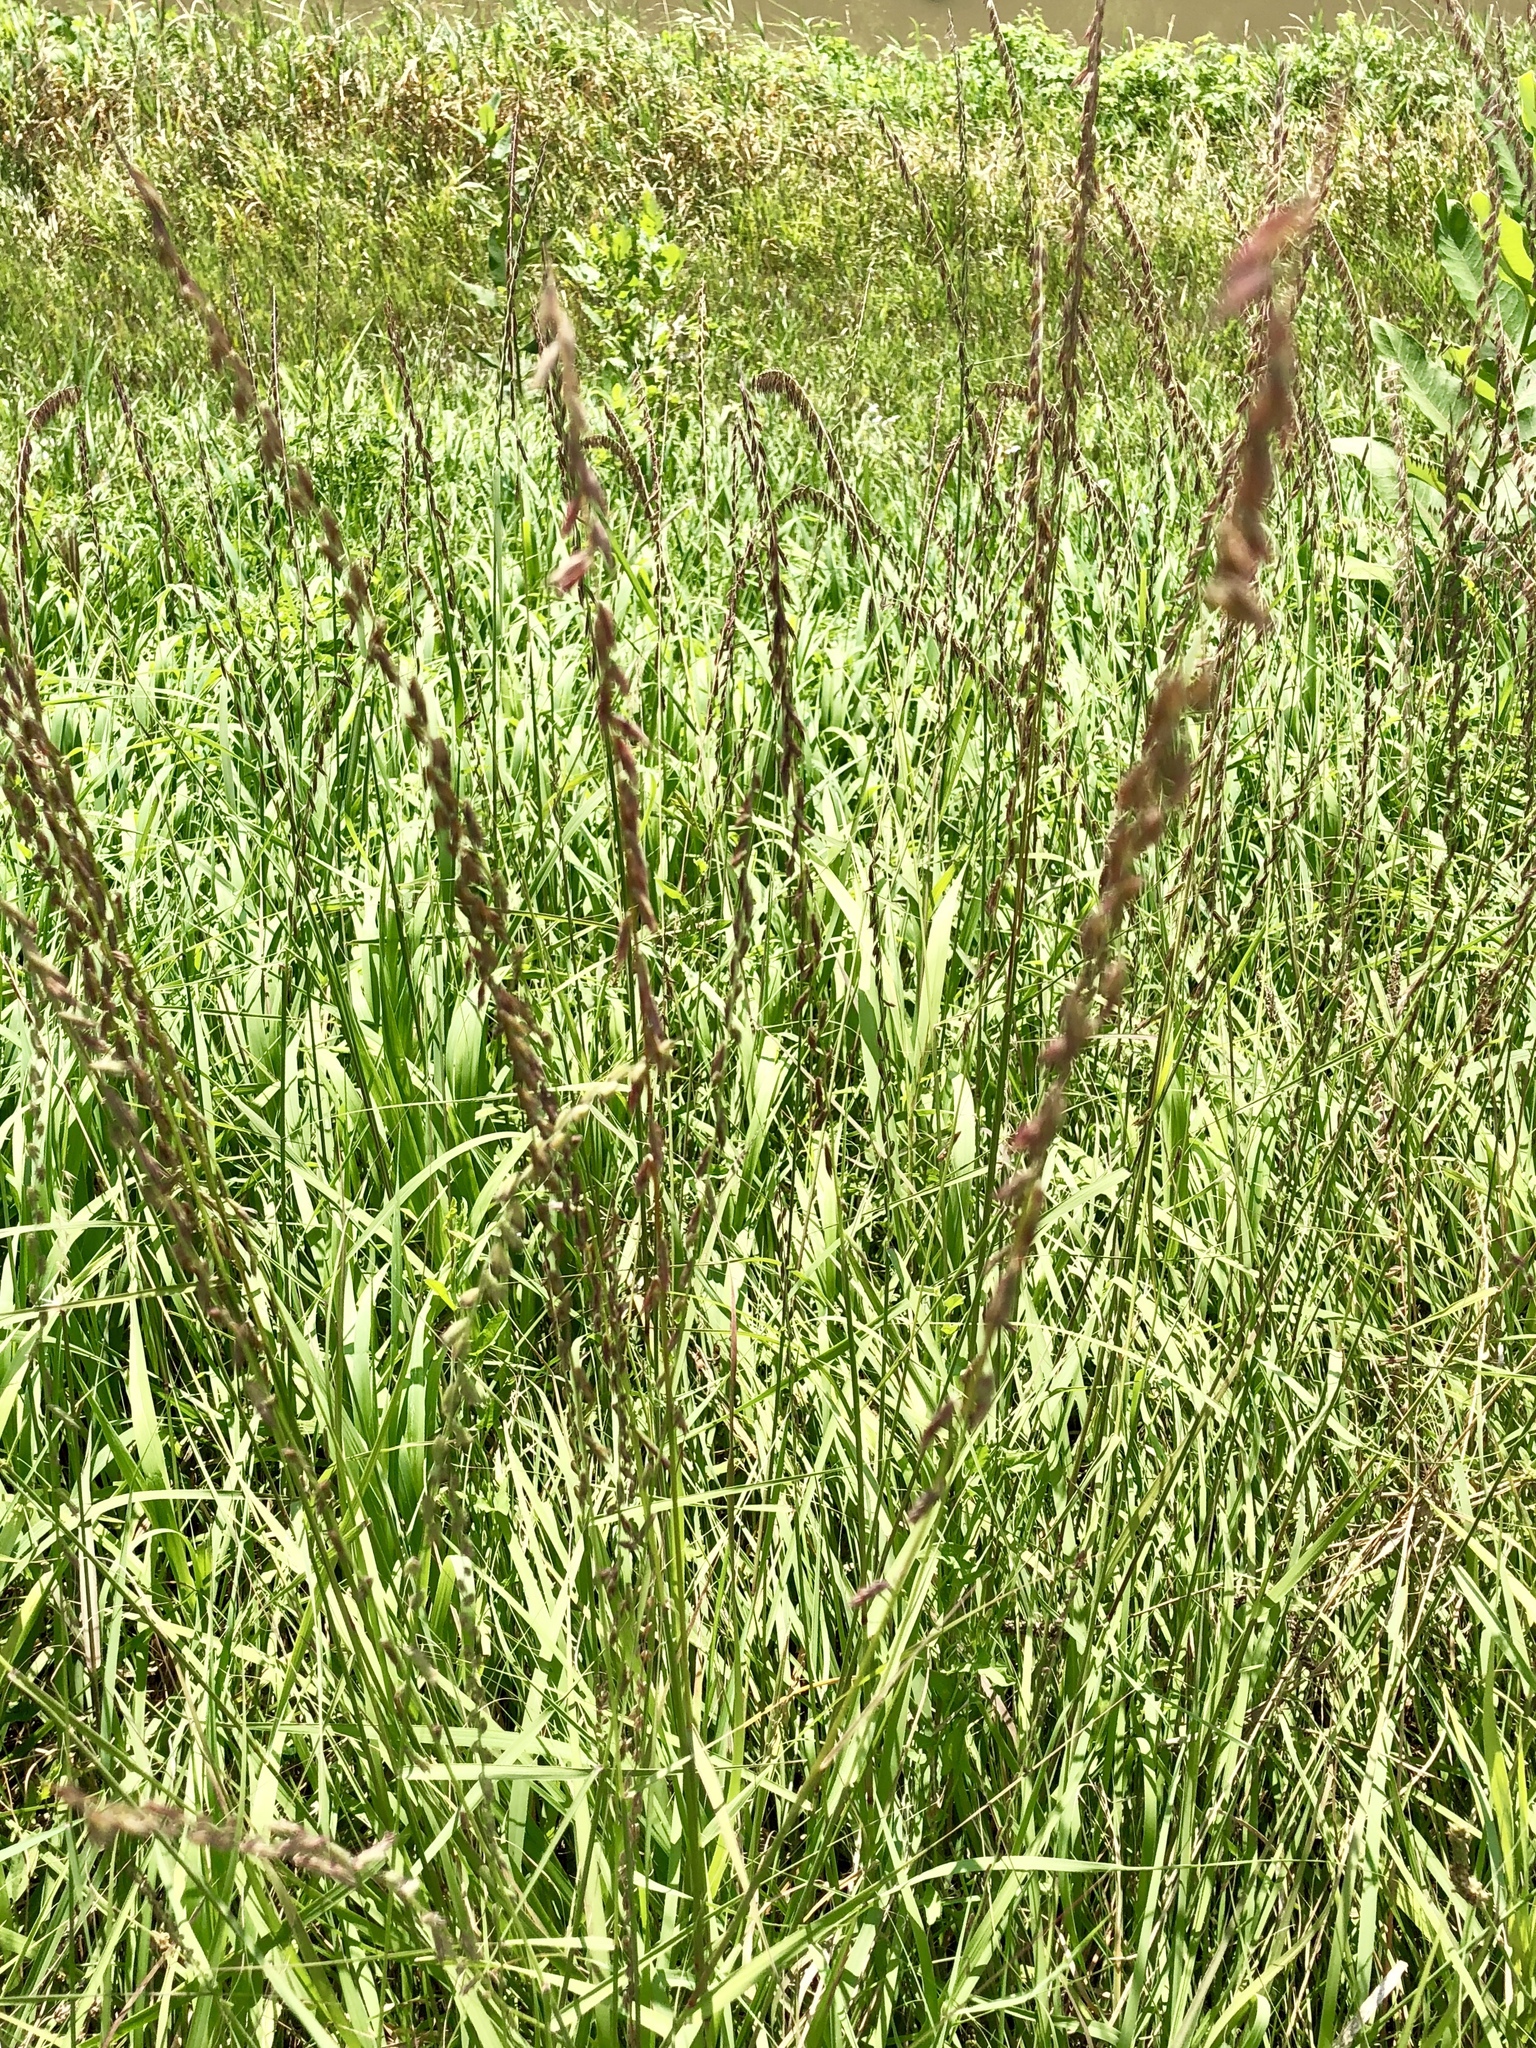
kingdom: Plantae
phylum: Tracheophyta
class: Liliopsida
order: Poales
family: Poaceae
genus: Bouteloua
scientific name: Bouteloua curtipendula
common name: Side-oats grama
